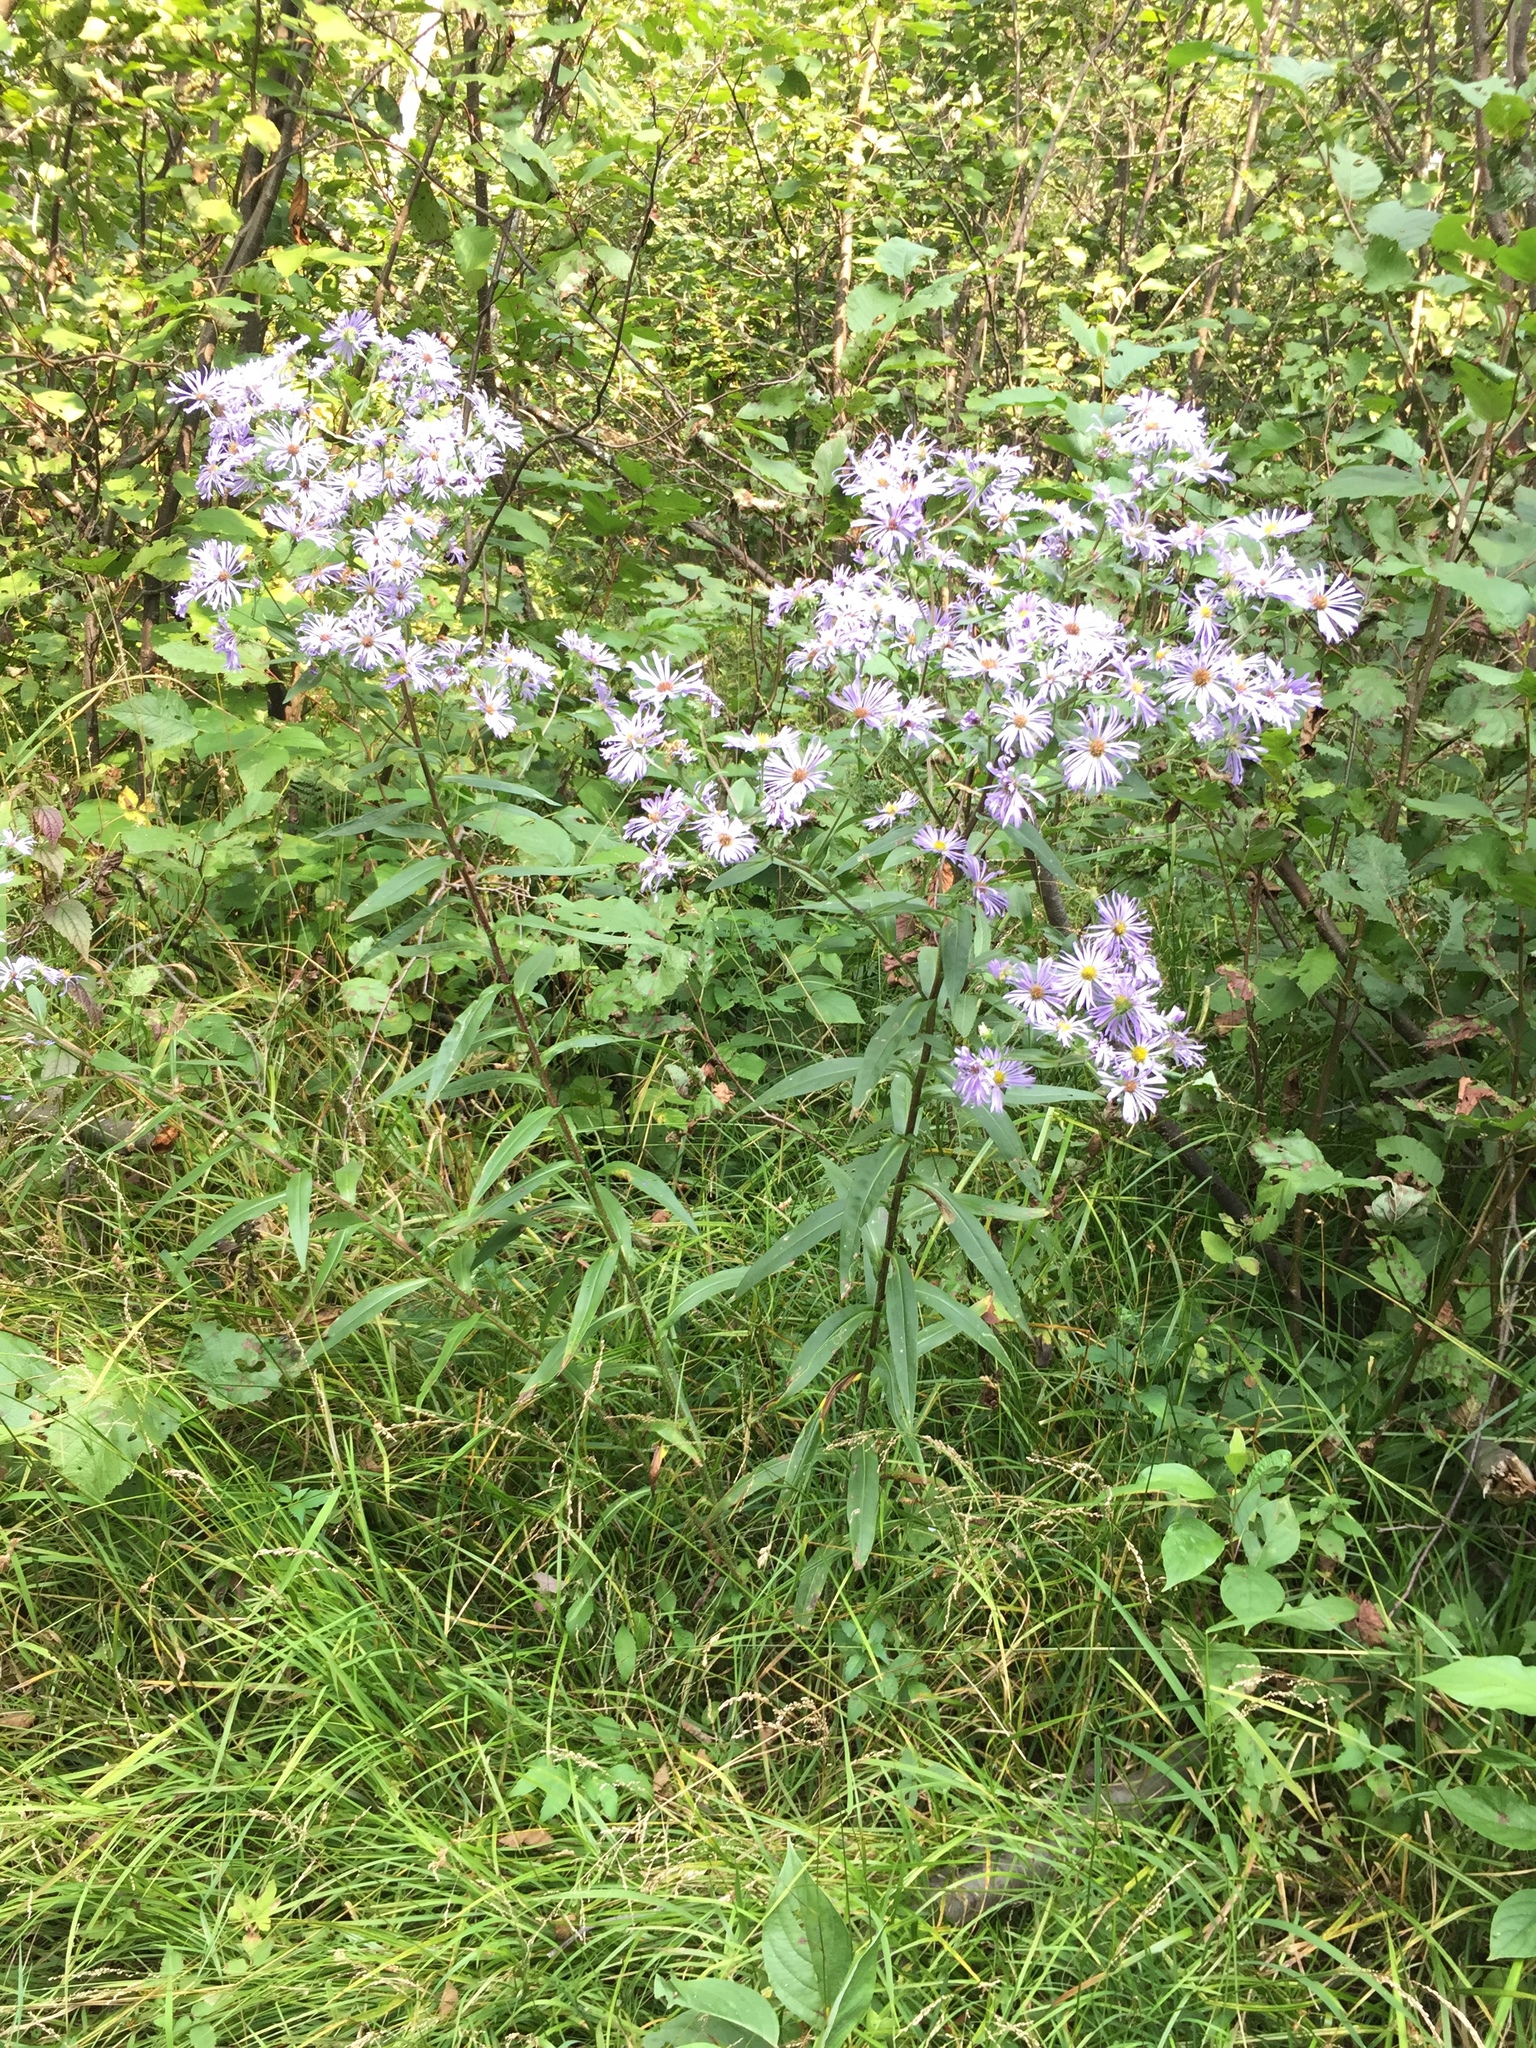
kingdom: Plantae
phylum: Tracheophyta
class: Magnoliopsida
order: Asterales
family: Asteraceae
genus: Symphyotrichum
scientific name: Symphyotrichum puniceum
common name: Bog aster
